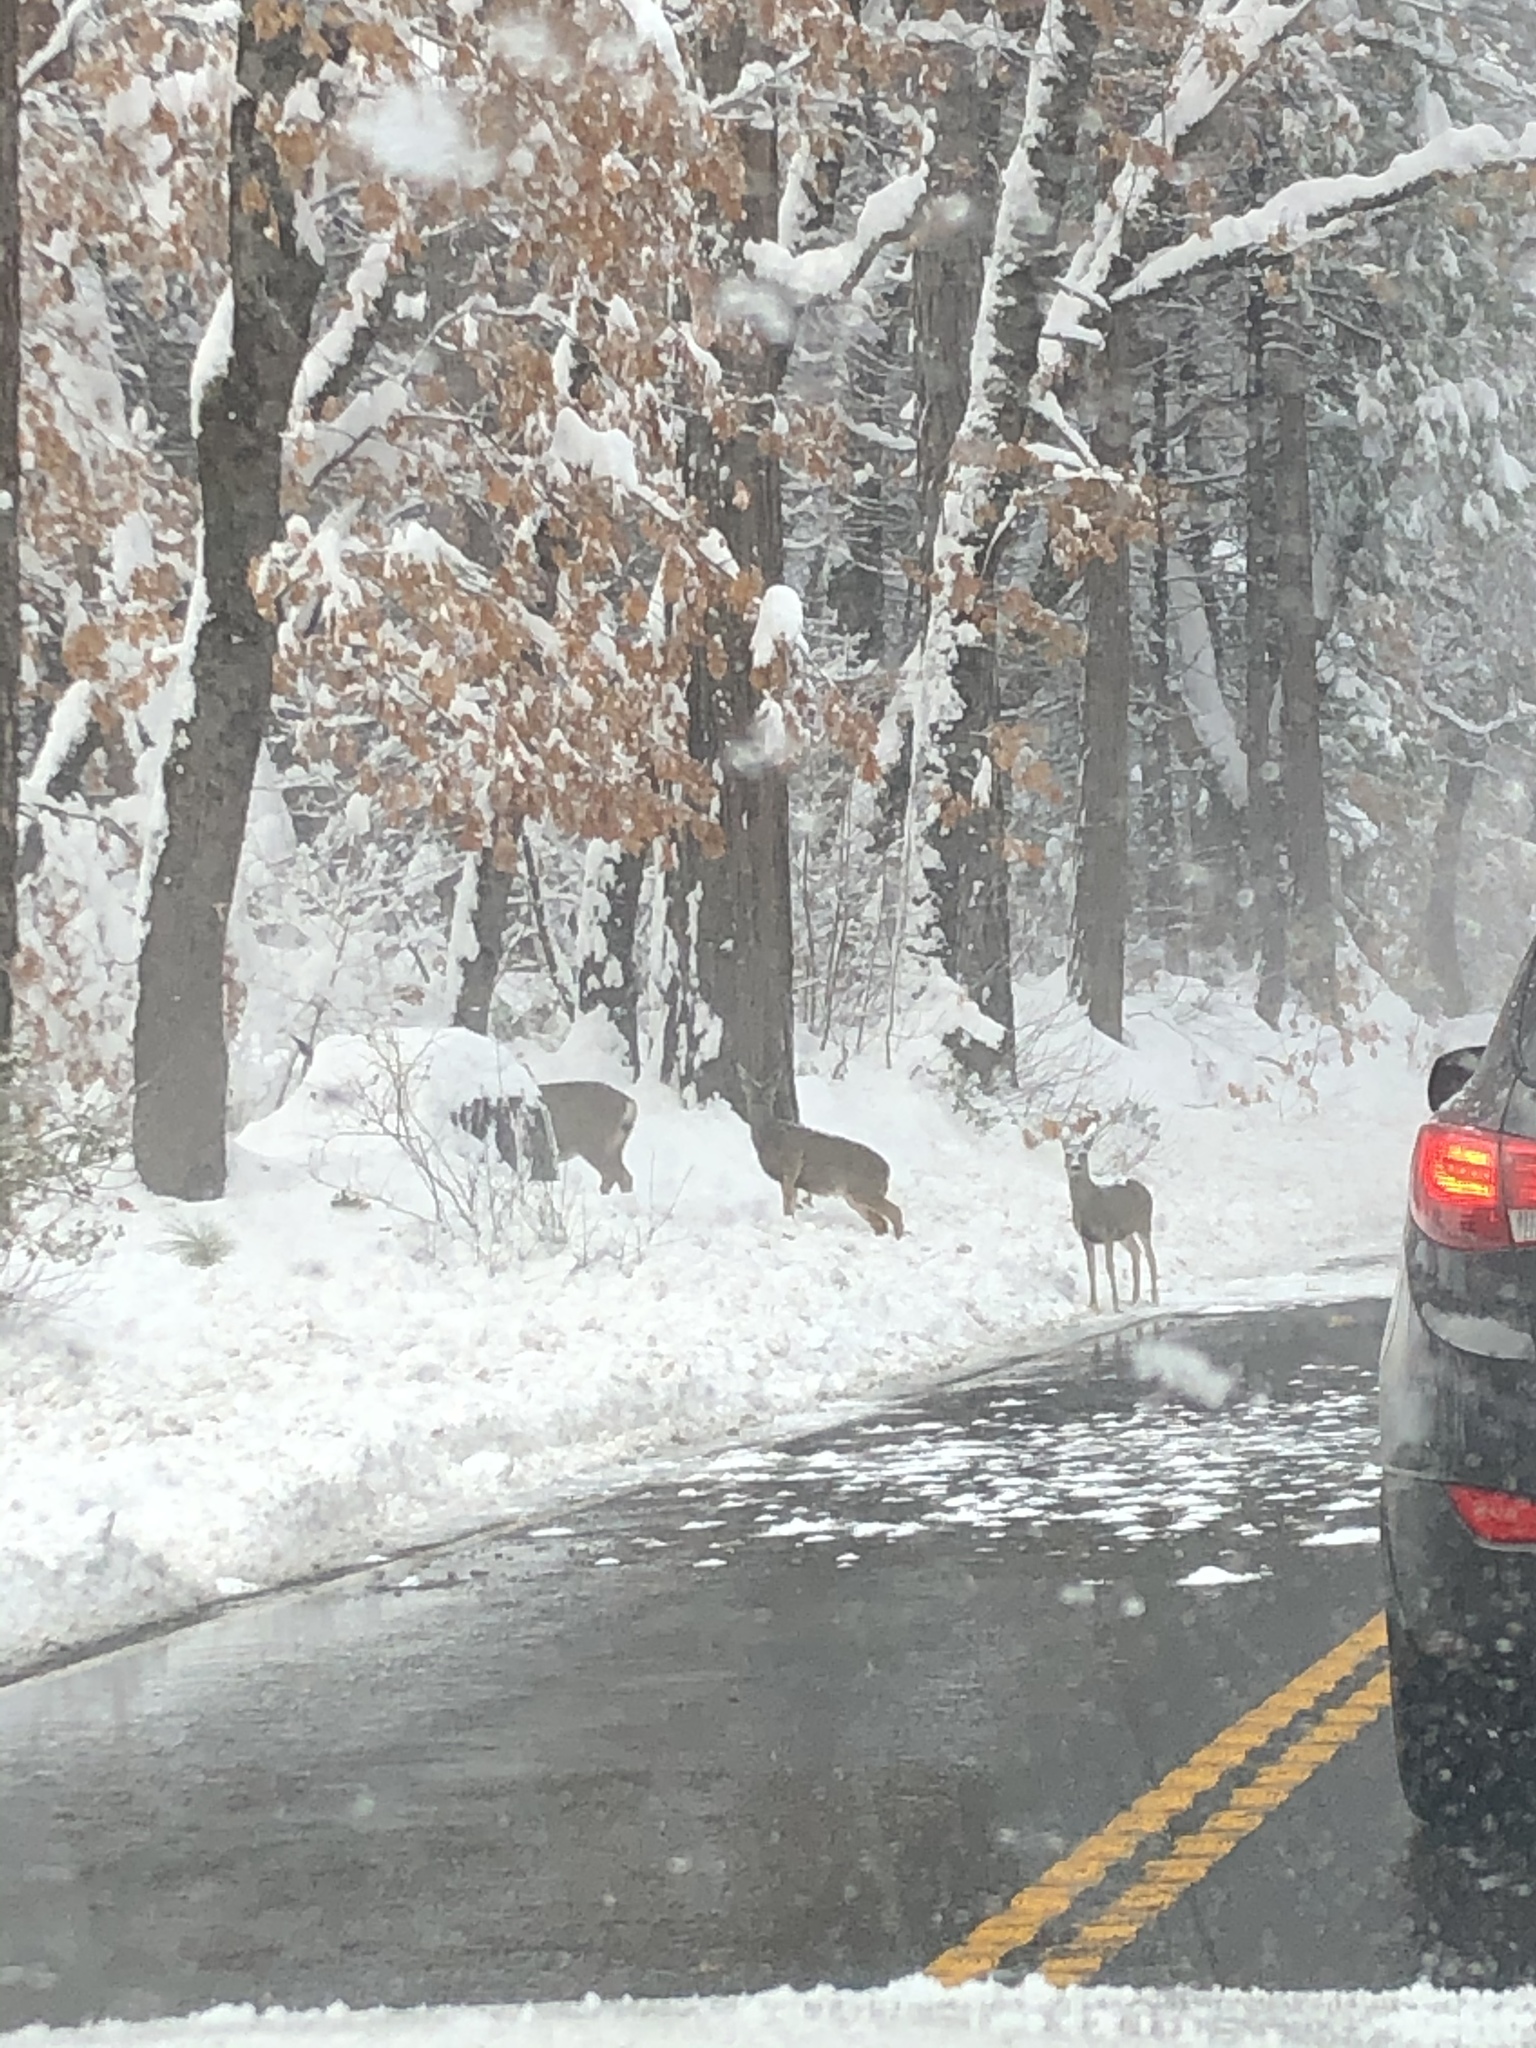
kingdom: Animalia
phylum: Chordata
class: Mammalia
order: Artiodactyla
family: Cervidae
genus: Odocoileus
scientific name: Odocoileus hemionus
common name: Mule deer
